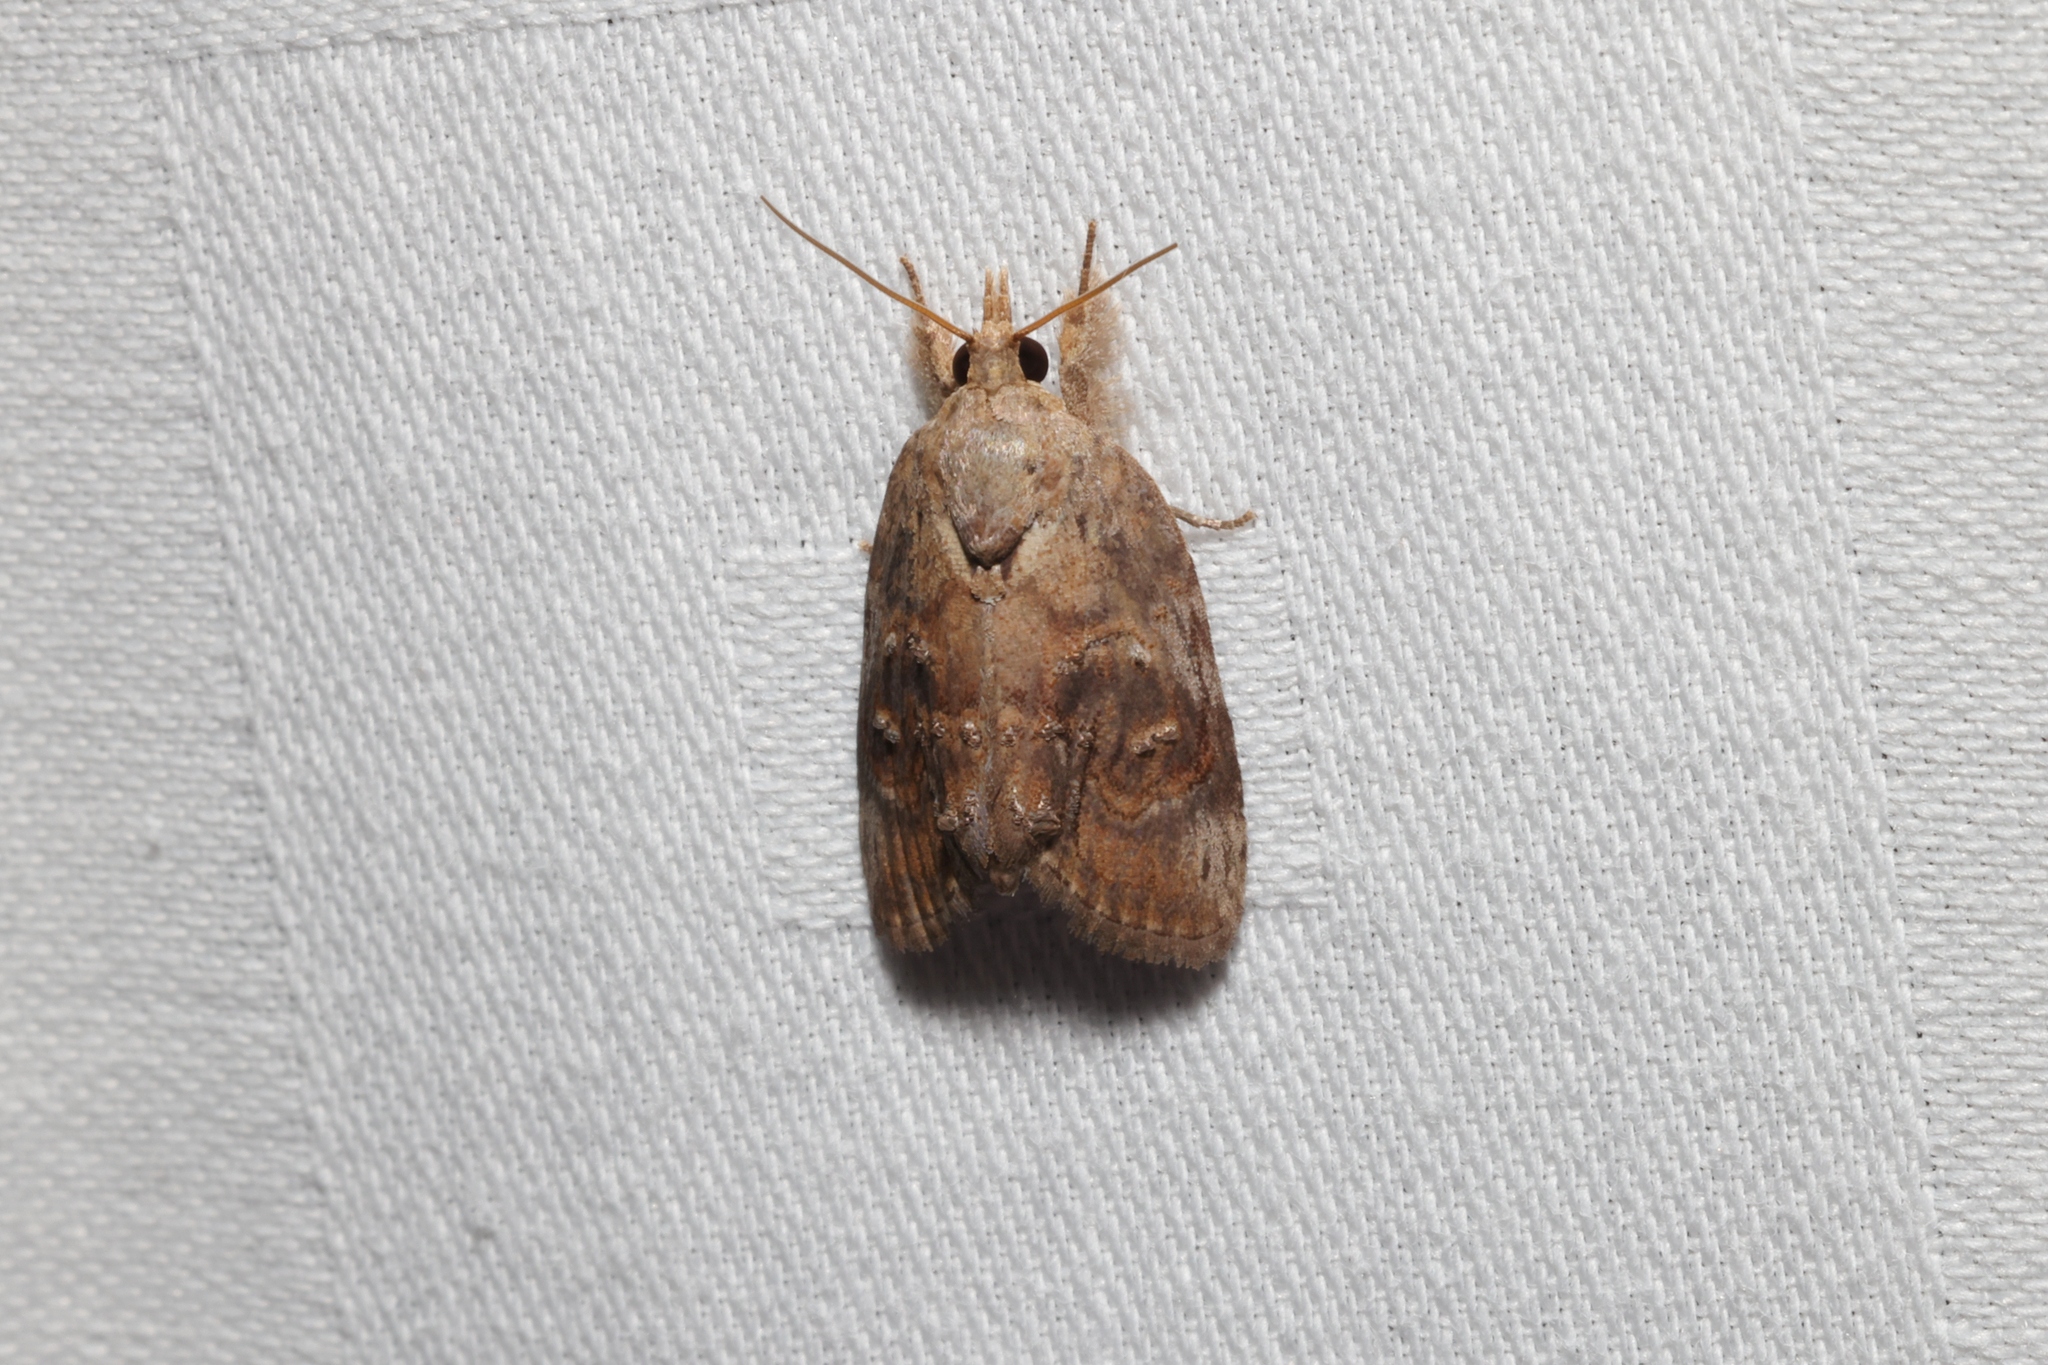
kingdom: Animalia
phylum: Arthropoda
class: Insecta
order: Lepidoptera
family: Nolidae
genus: Selepa
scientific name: Selepa celtis
